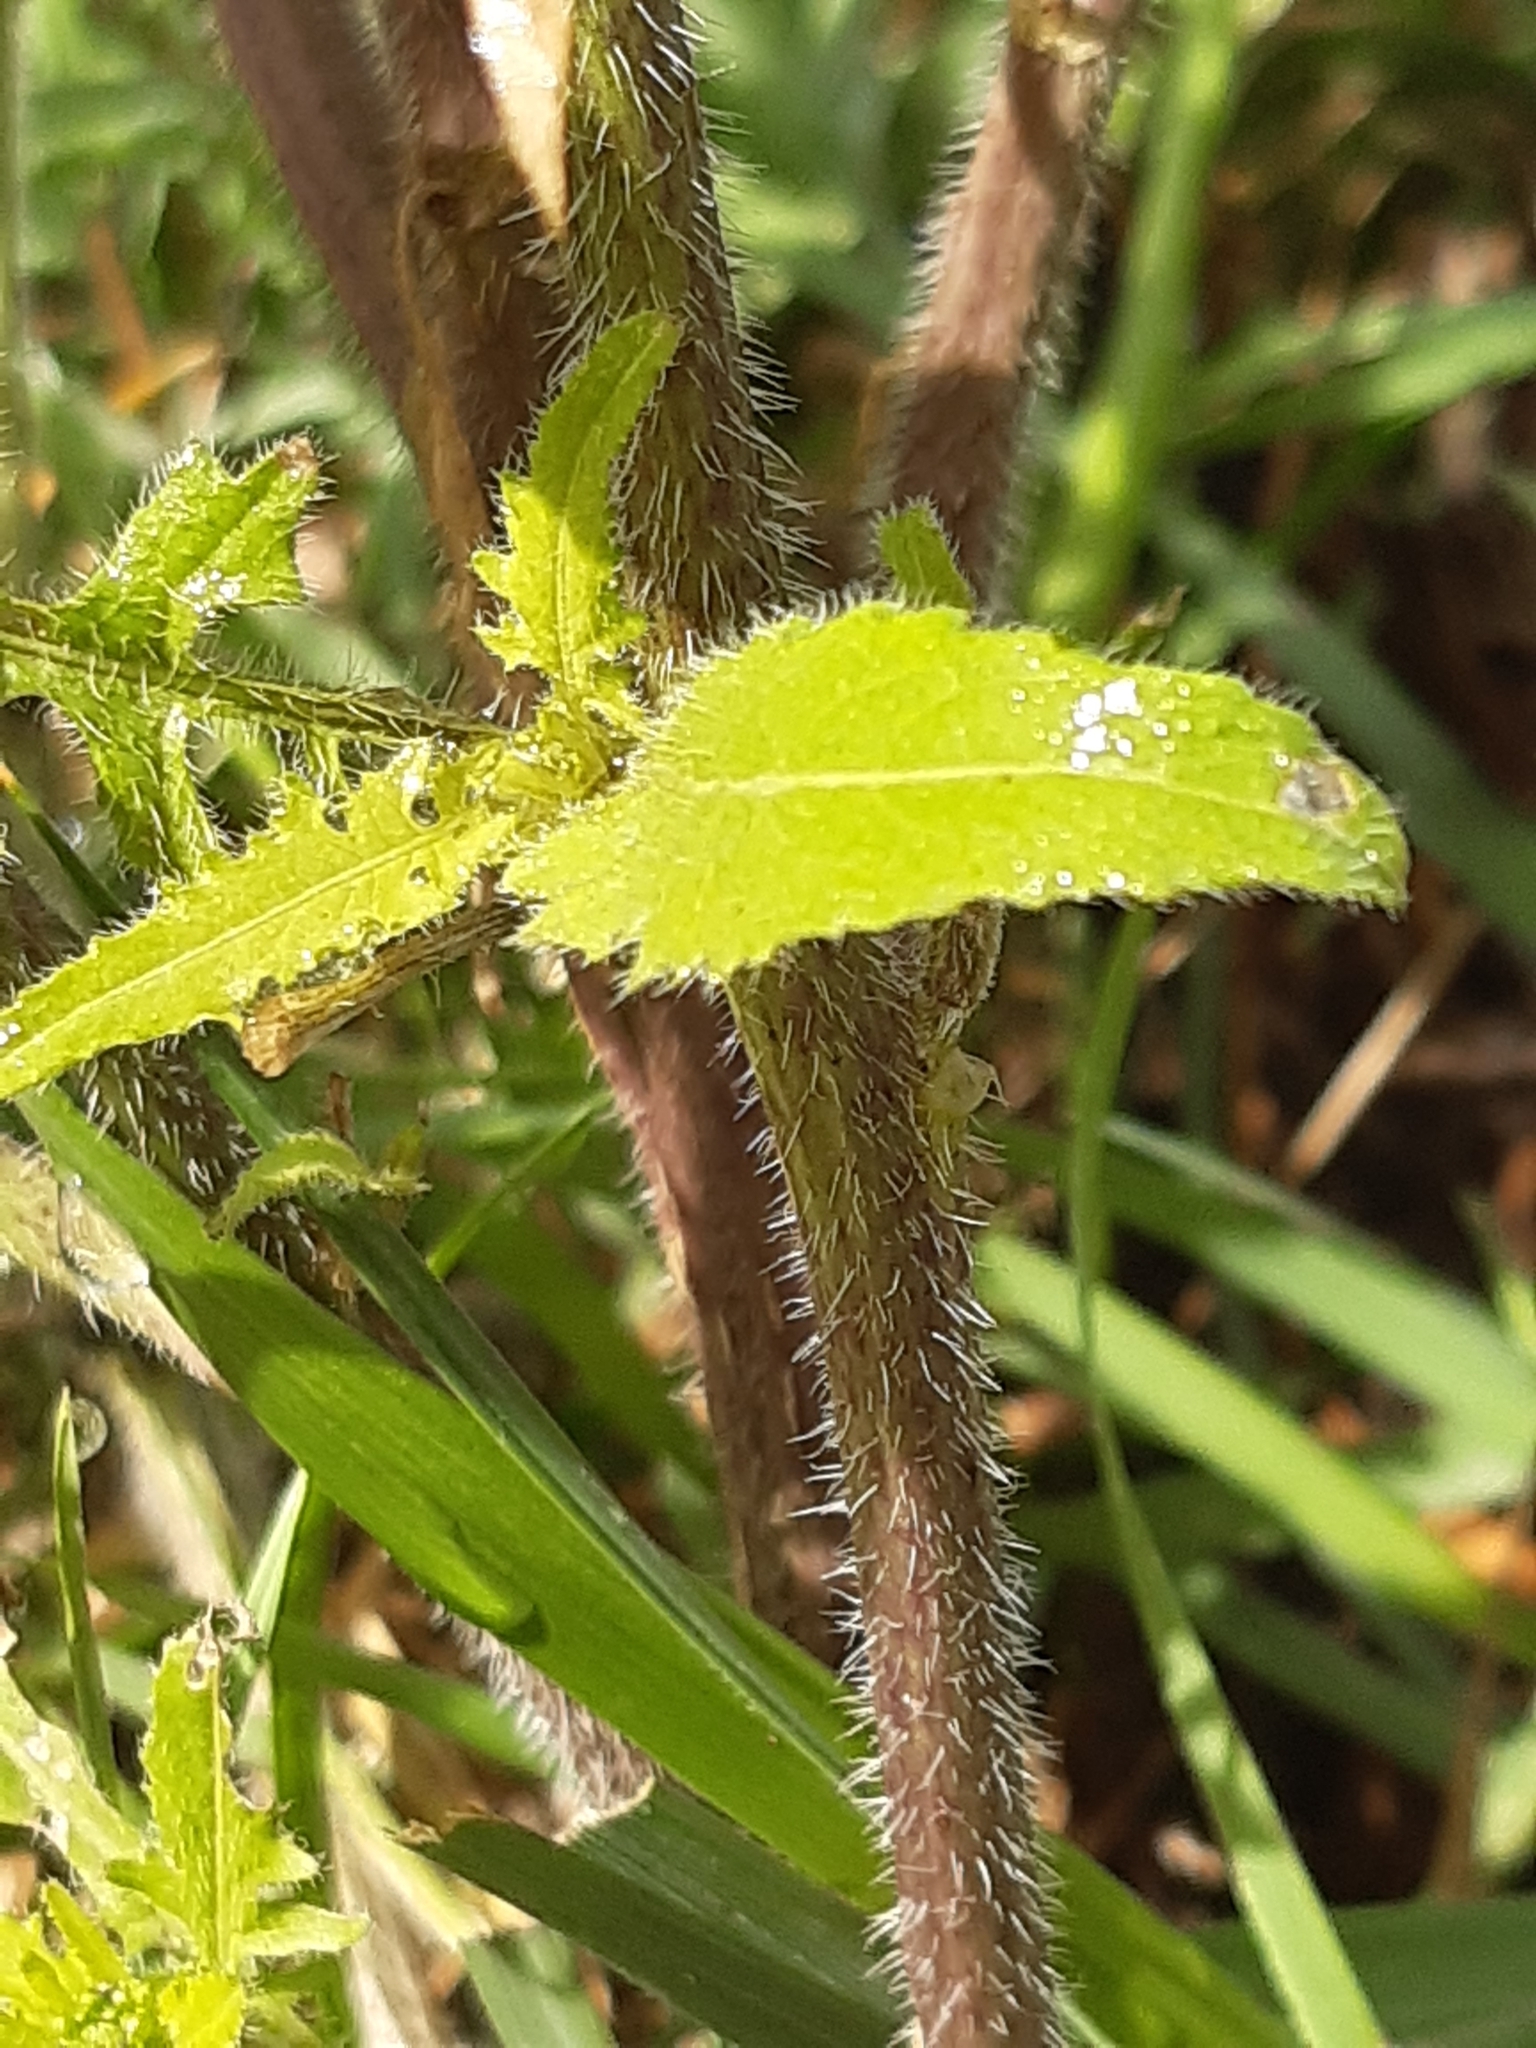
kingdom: Plantae
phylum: Tracheophyta
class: Magnoliopsida
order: Brassicales
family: Brassicaceae
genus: Sisymbrium
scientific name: Sisymbrium loeselii
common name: False london-rocket
